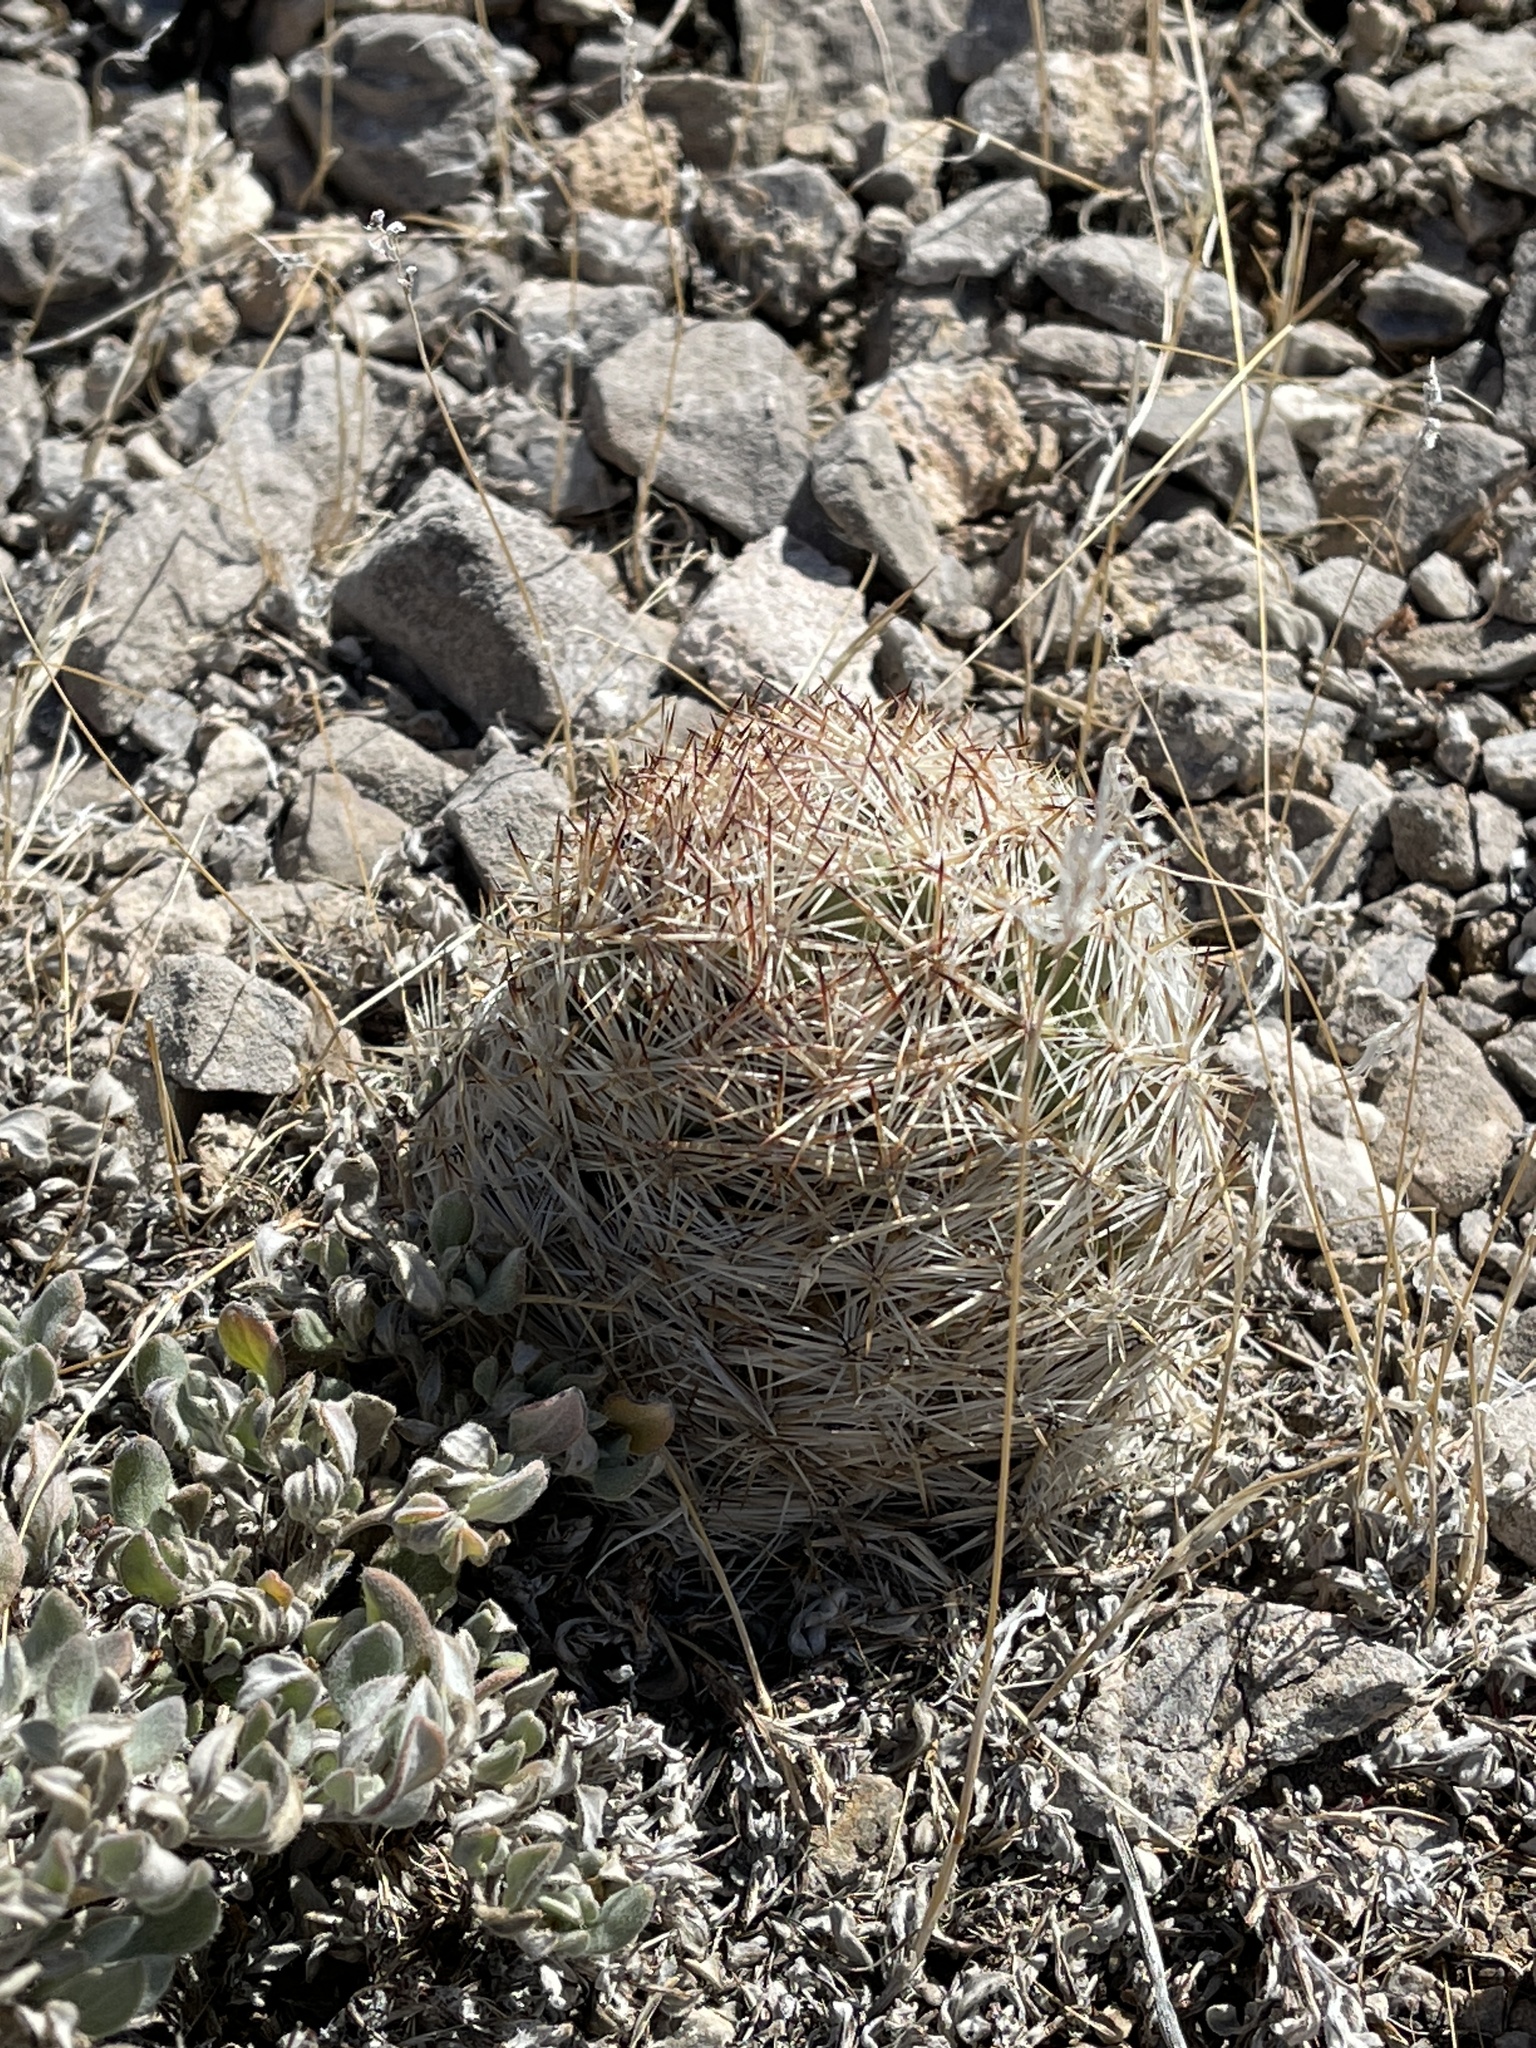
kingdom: Plantae
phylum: Tracheophyta
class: Magnoliopsida
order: Caryophyllales
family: Cactaceae
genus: Pelecyphora
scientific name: Pelecyphora vivipara
